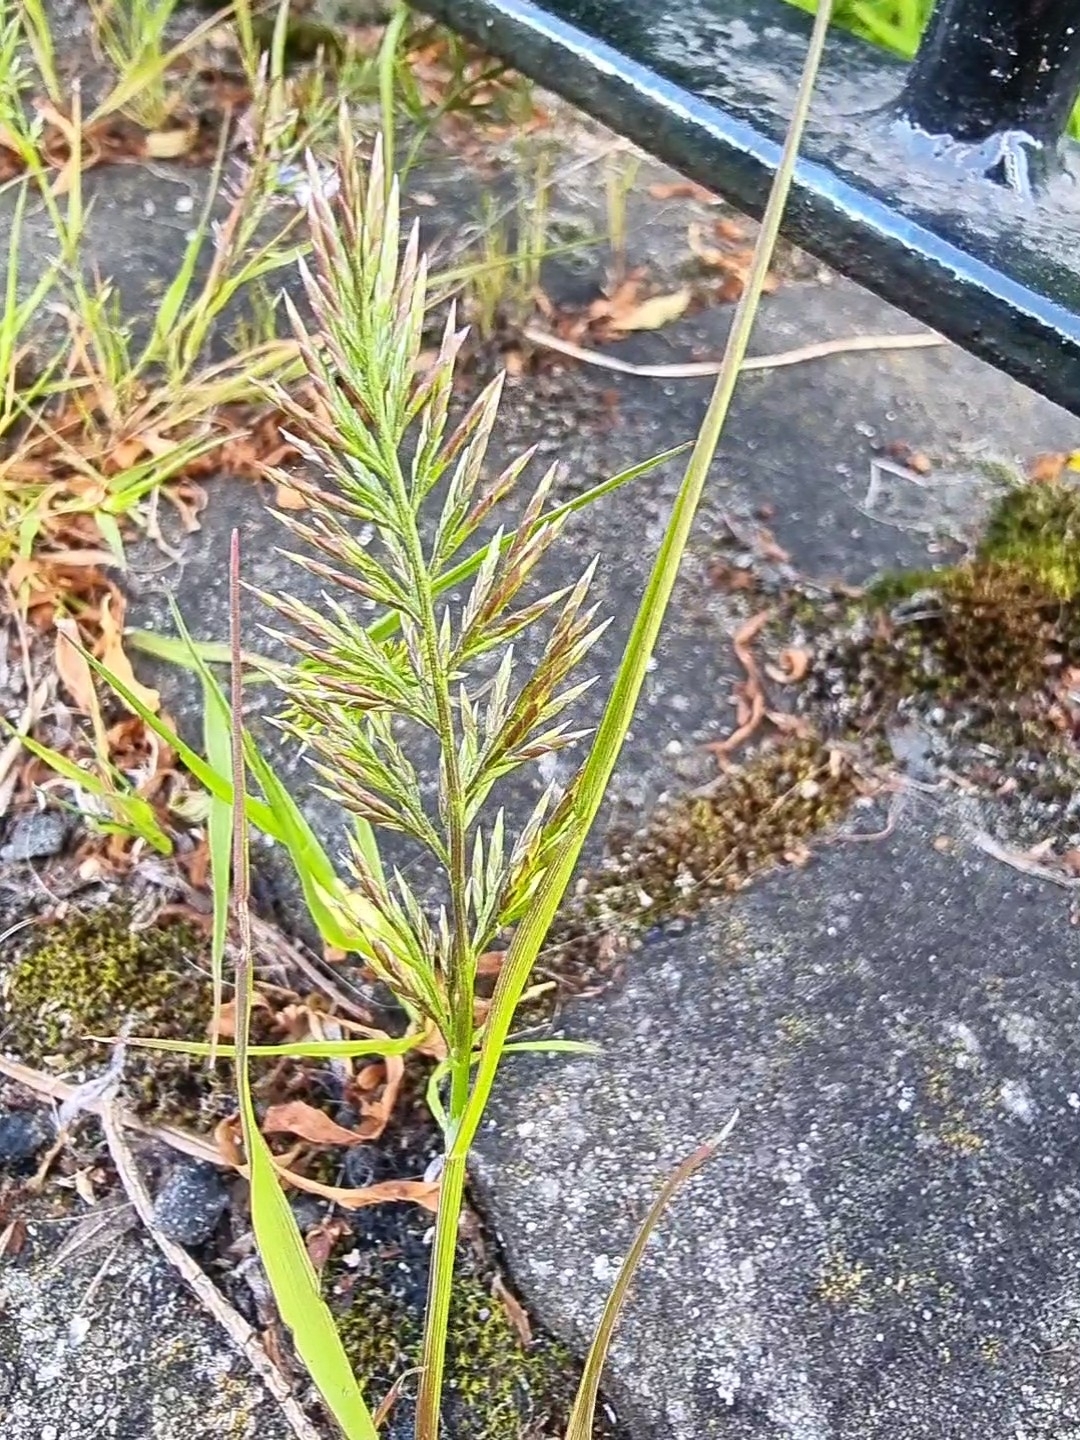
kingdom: Plantae
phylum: Tracheophyta
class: Liliopsida
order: Poales
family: Poaceae
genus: Catapodium
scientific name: Catapodium rigidum
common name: Fern-grass
